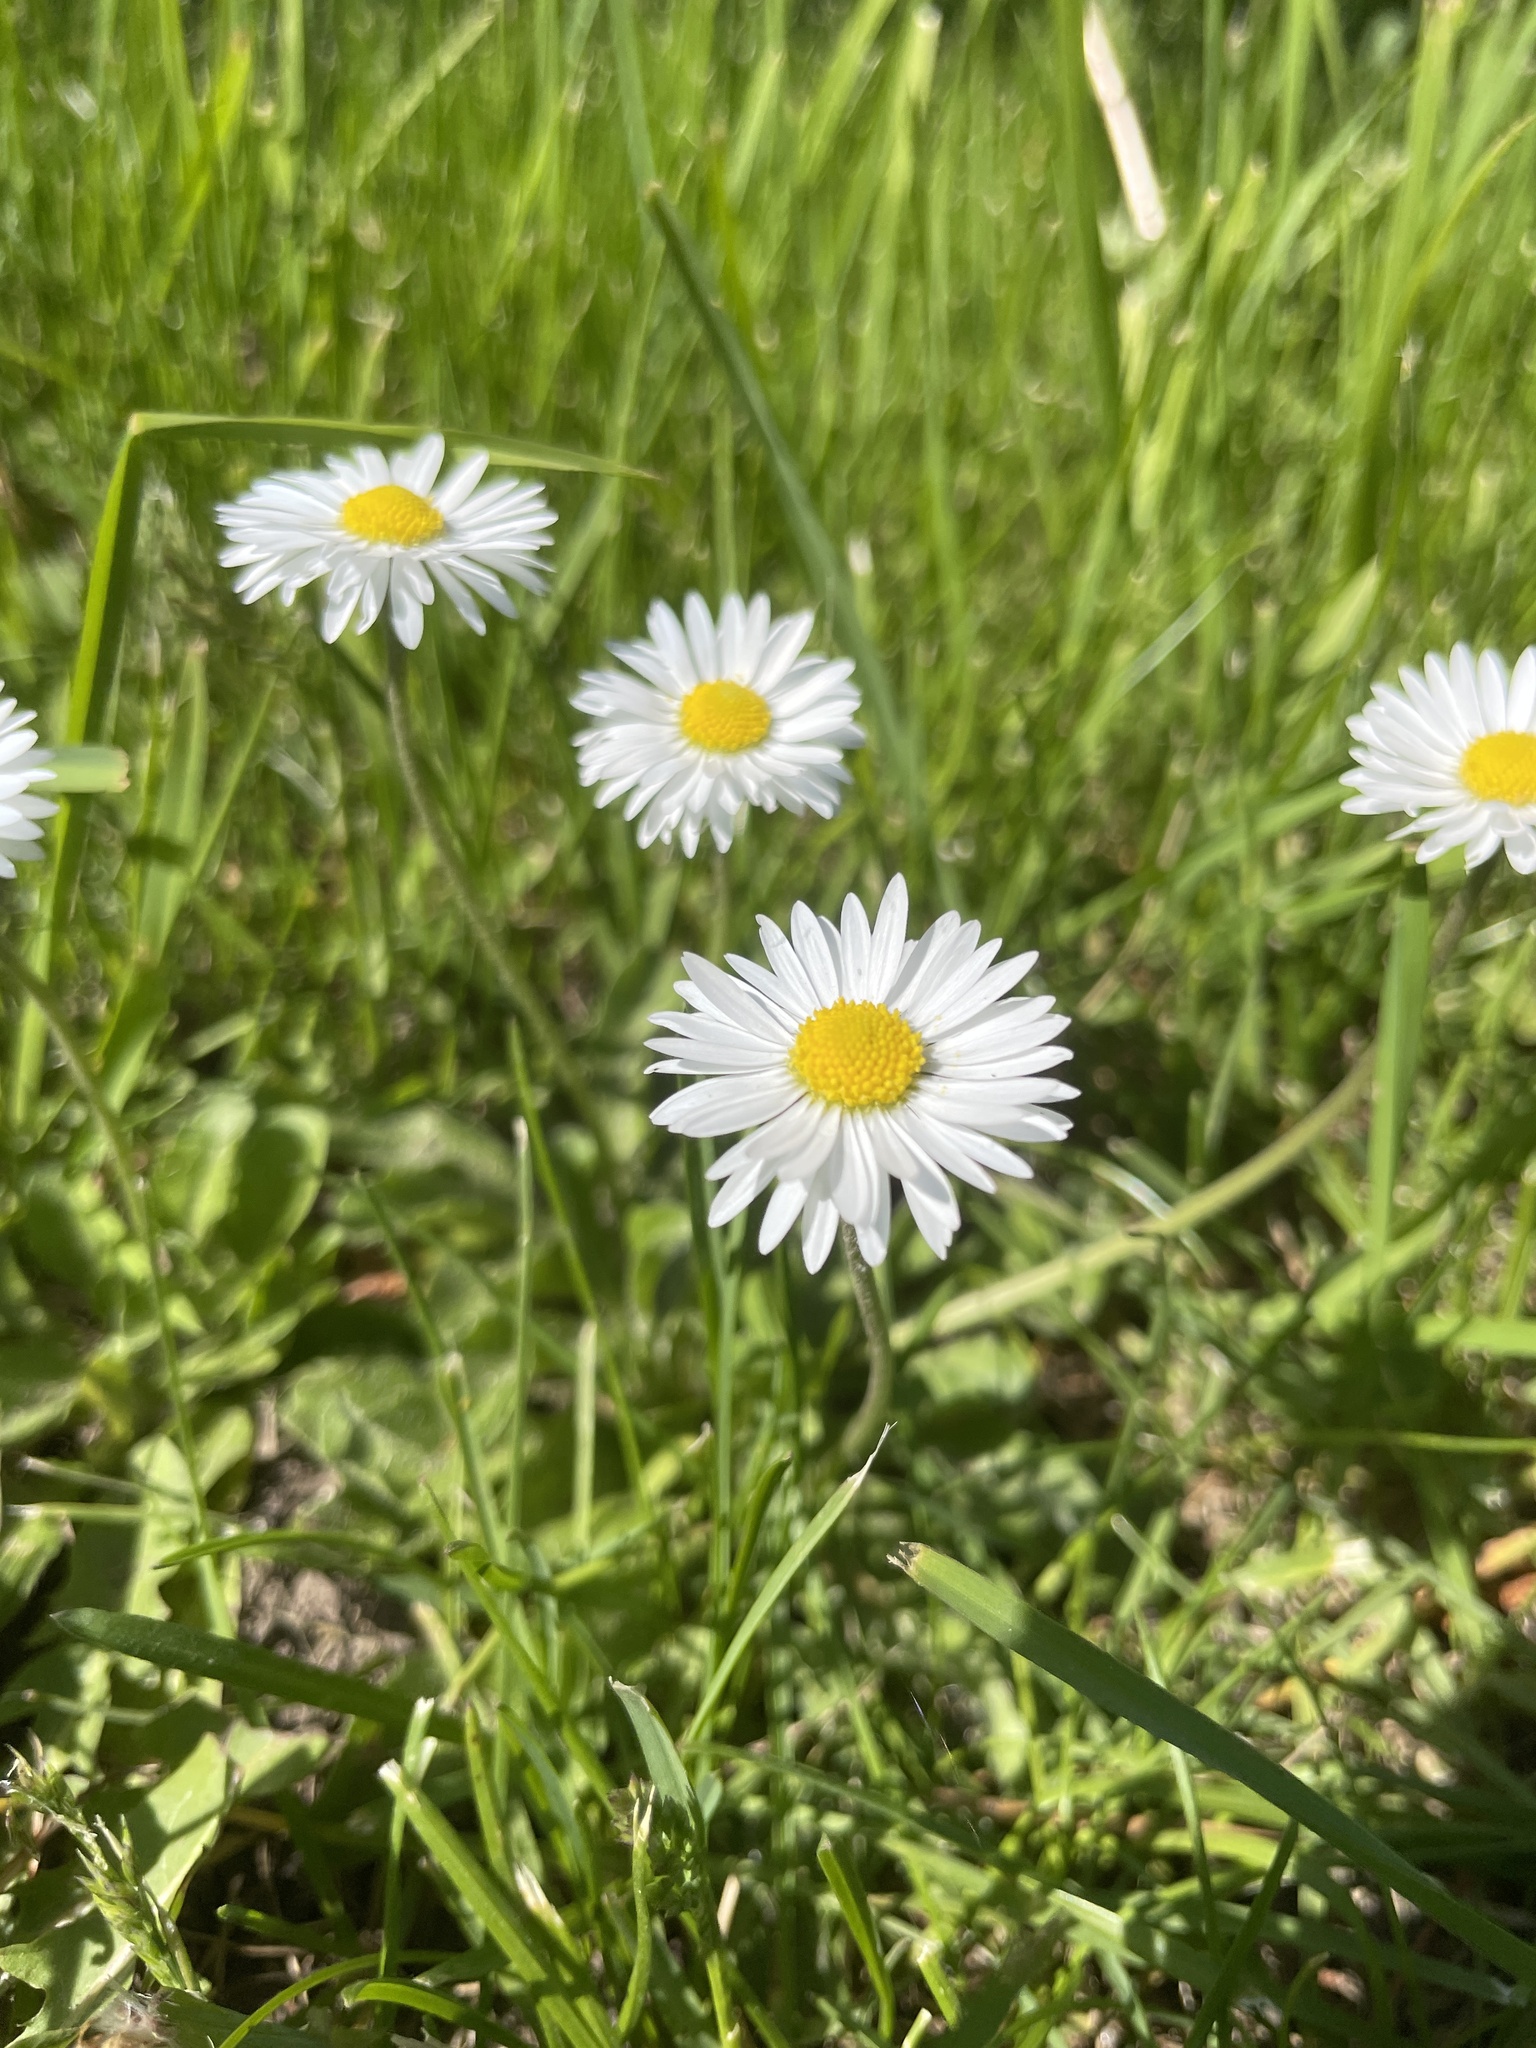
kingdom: Plantae
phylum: Tracheophyta
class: Magnoliopsida
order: Asterales
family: Asteraceae
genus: Bellis
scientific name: Bellis perennis
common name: Lawndaisy
